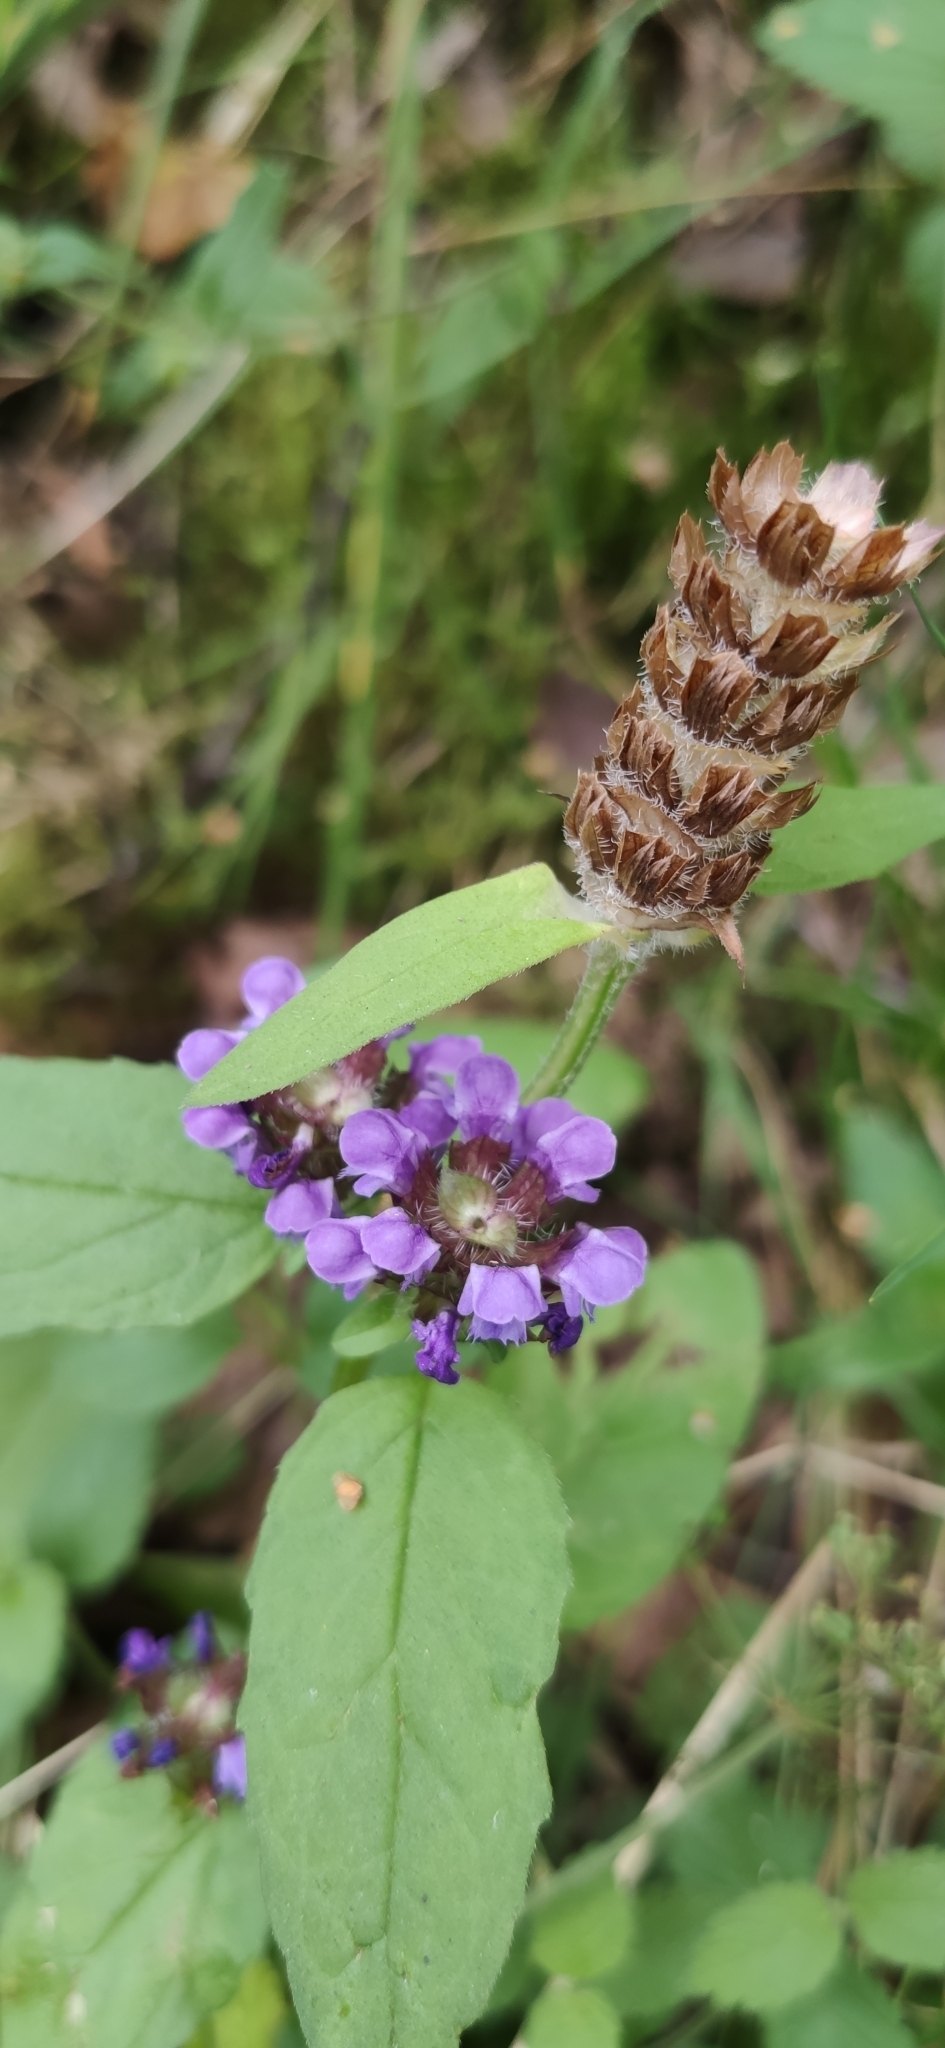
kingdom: Plantae
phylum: Tracheophyta
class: Magnoliopsida
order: Lamiales
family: Lamiaceae
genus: Prunella
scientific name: Prunella vulgaris
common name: Heal-all
